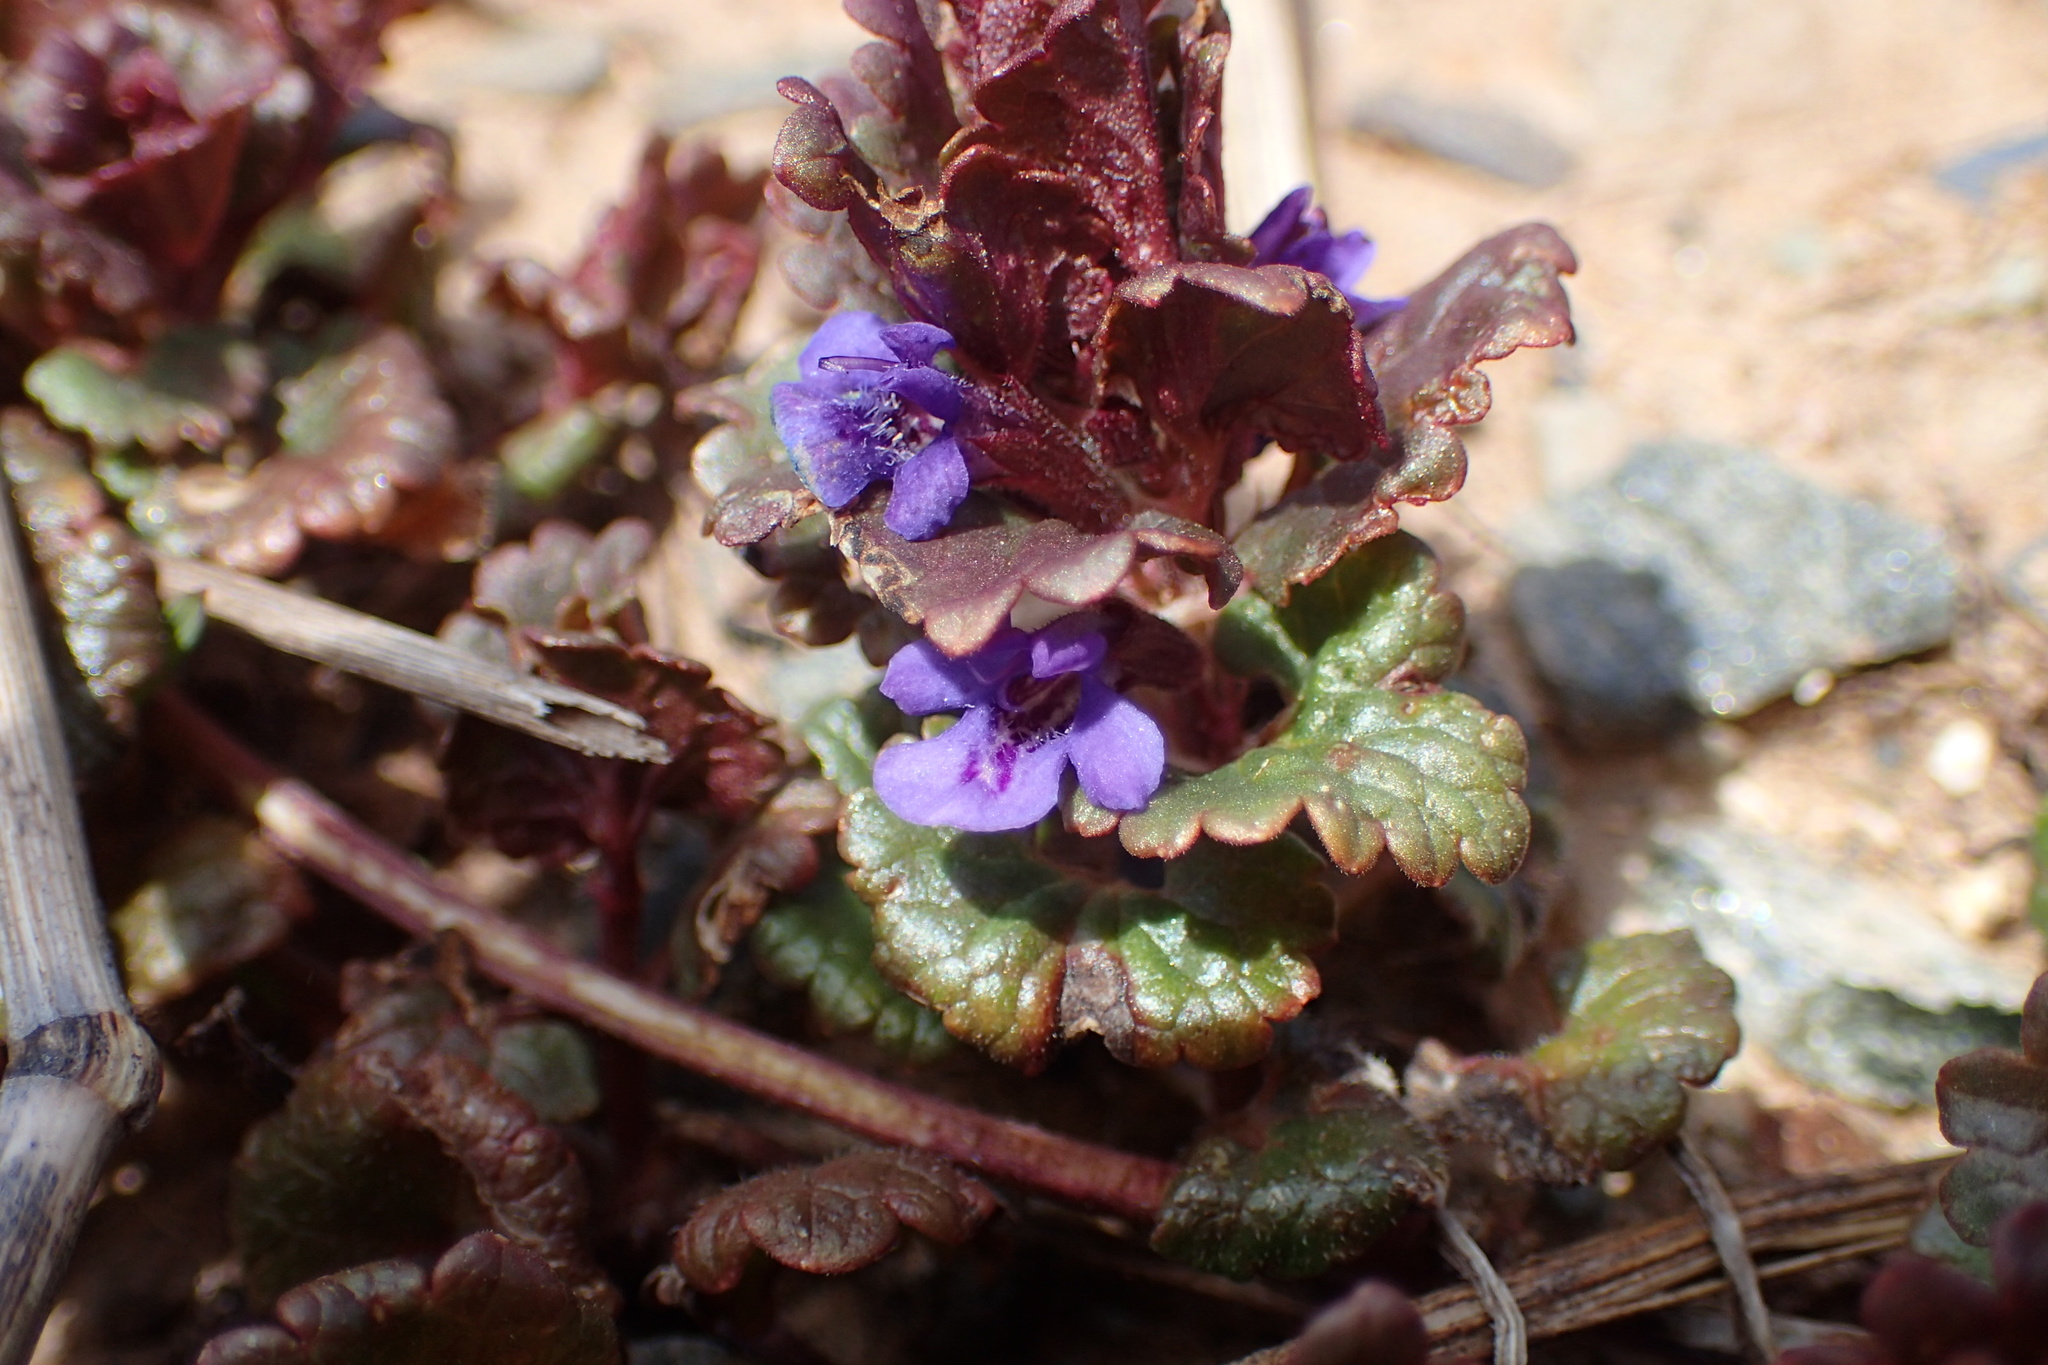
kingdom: Plantae
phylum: Tracheophyta
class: Magnoliopsida
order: Lamiales
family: Lamiaceae
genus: Glechoma
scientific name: Glechoma hederacea
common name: Ground ivy
